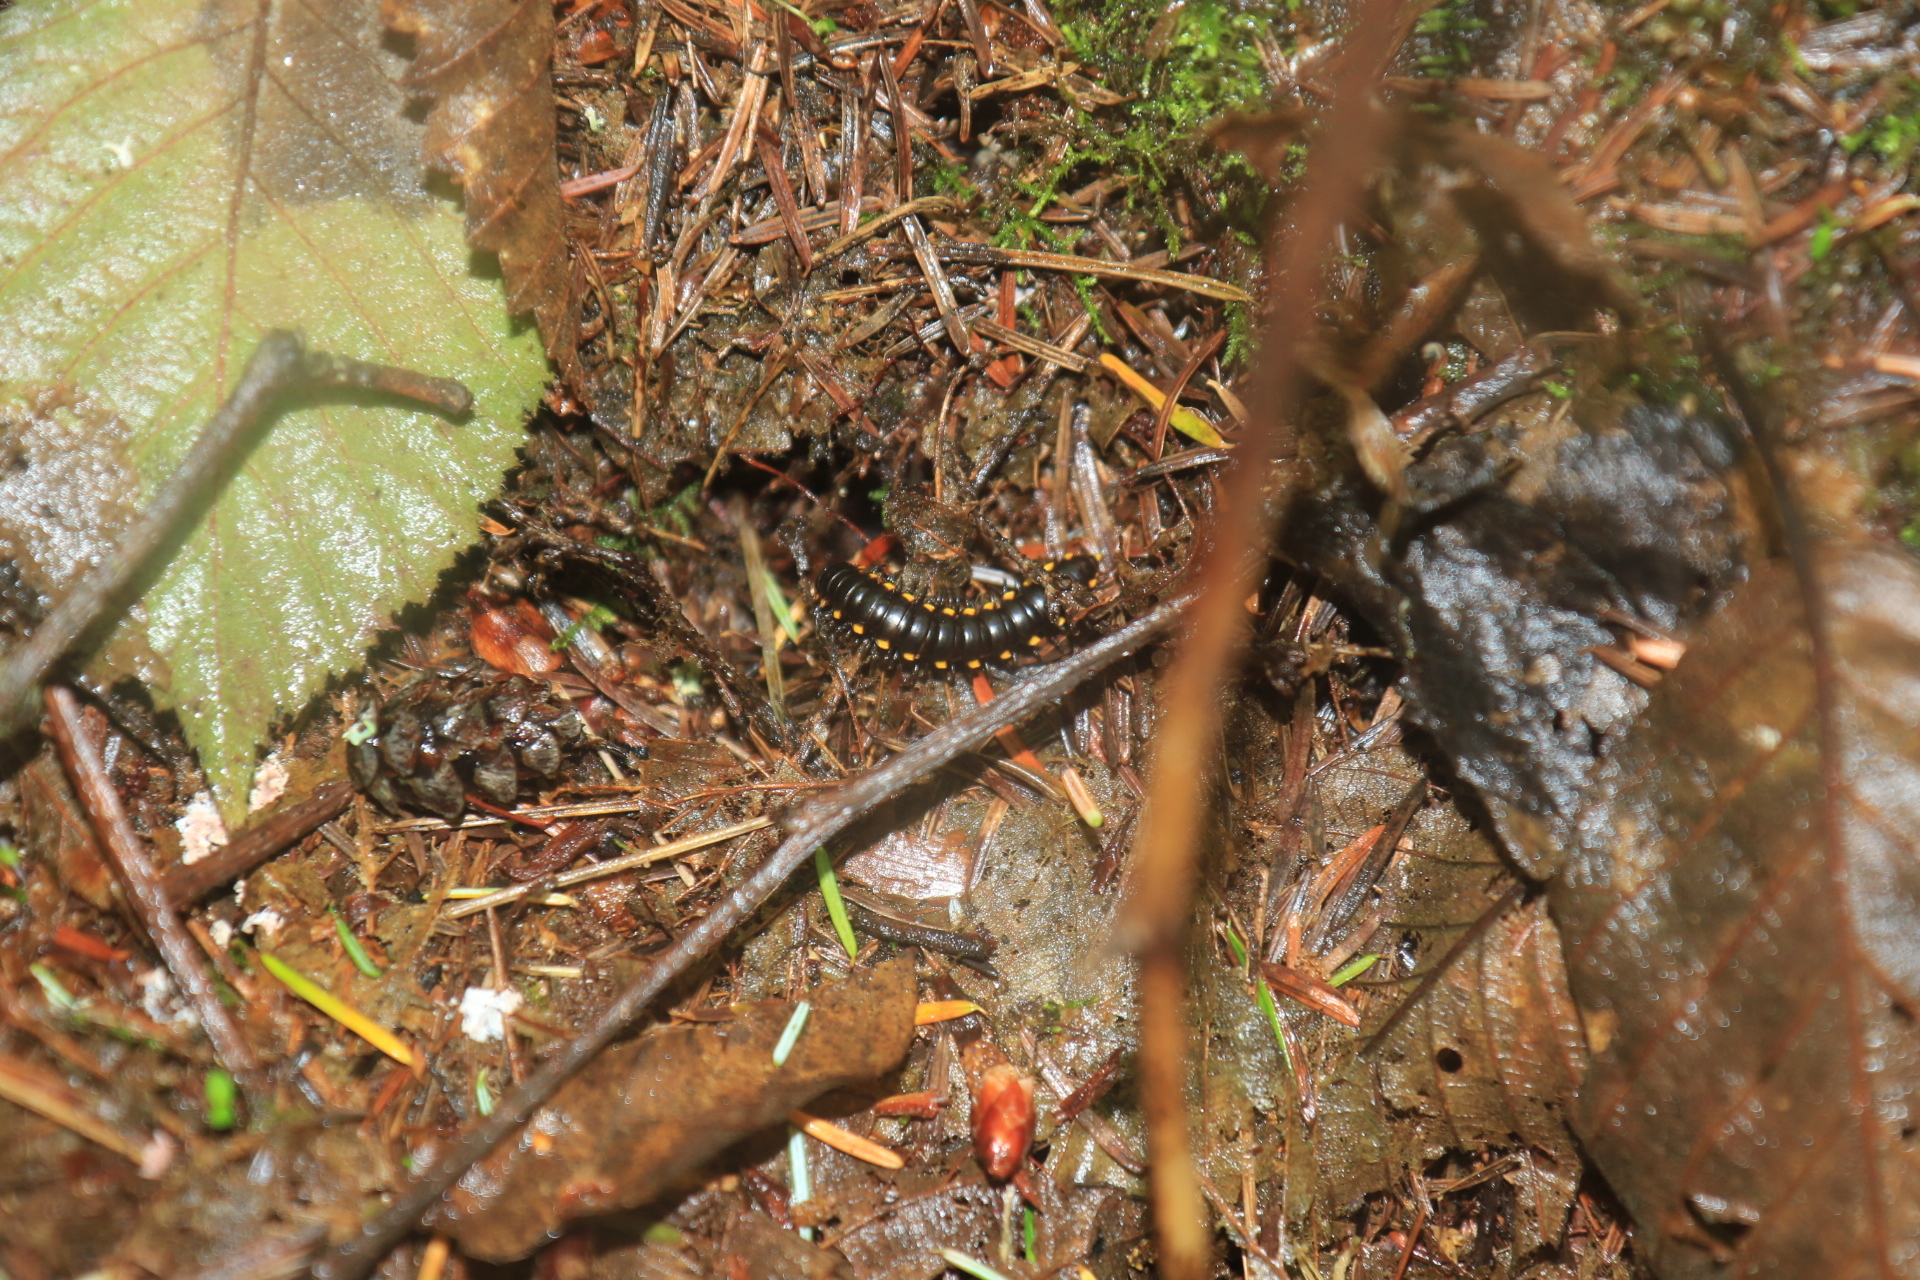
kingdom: Animalia
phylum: Arthropoda
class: Diplopoda
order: Polydesmida
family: Xystodesmidae
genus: Harpaphe
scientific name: Harpaphe haydeniana
